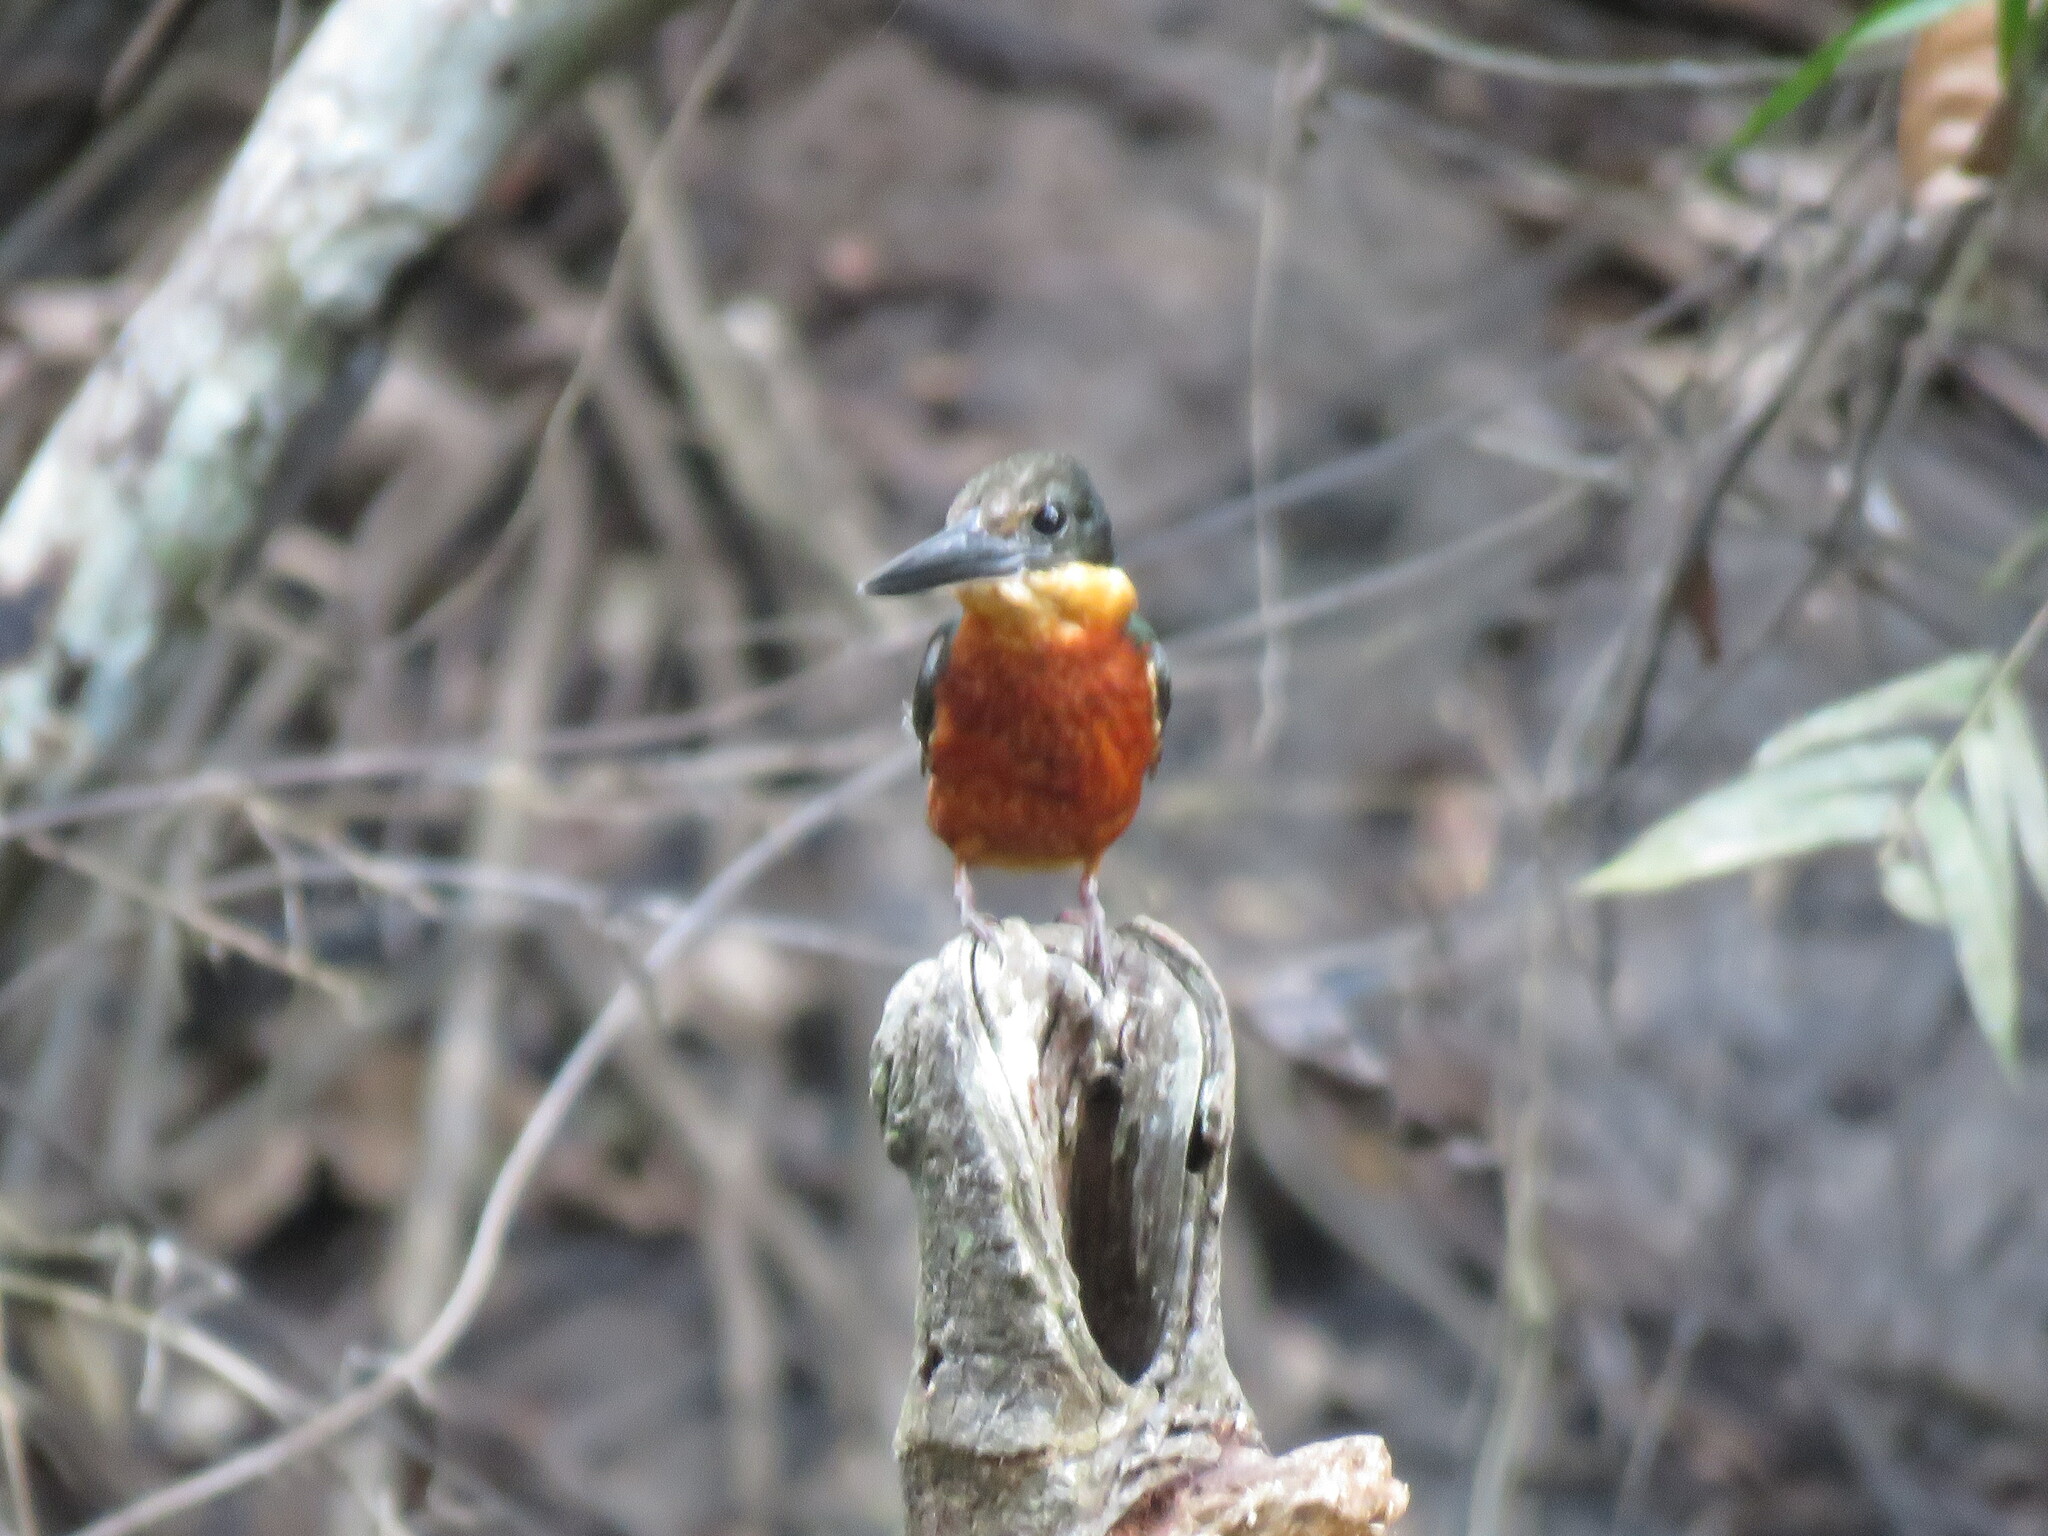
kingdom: Animalia
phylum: Chordata
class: Aves
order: Coraciiformes
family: Alcedinidae
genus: Chloroceryle
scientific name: Chloroceryle inda
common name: Green-and-rufous kingfisher
